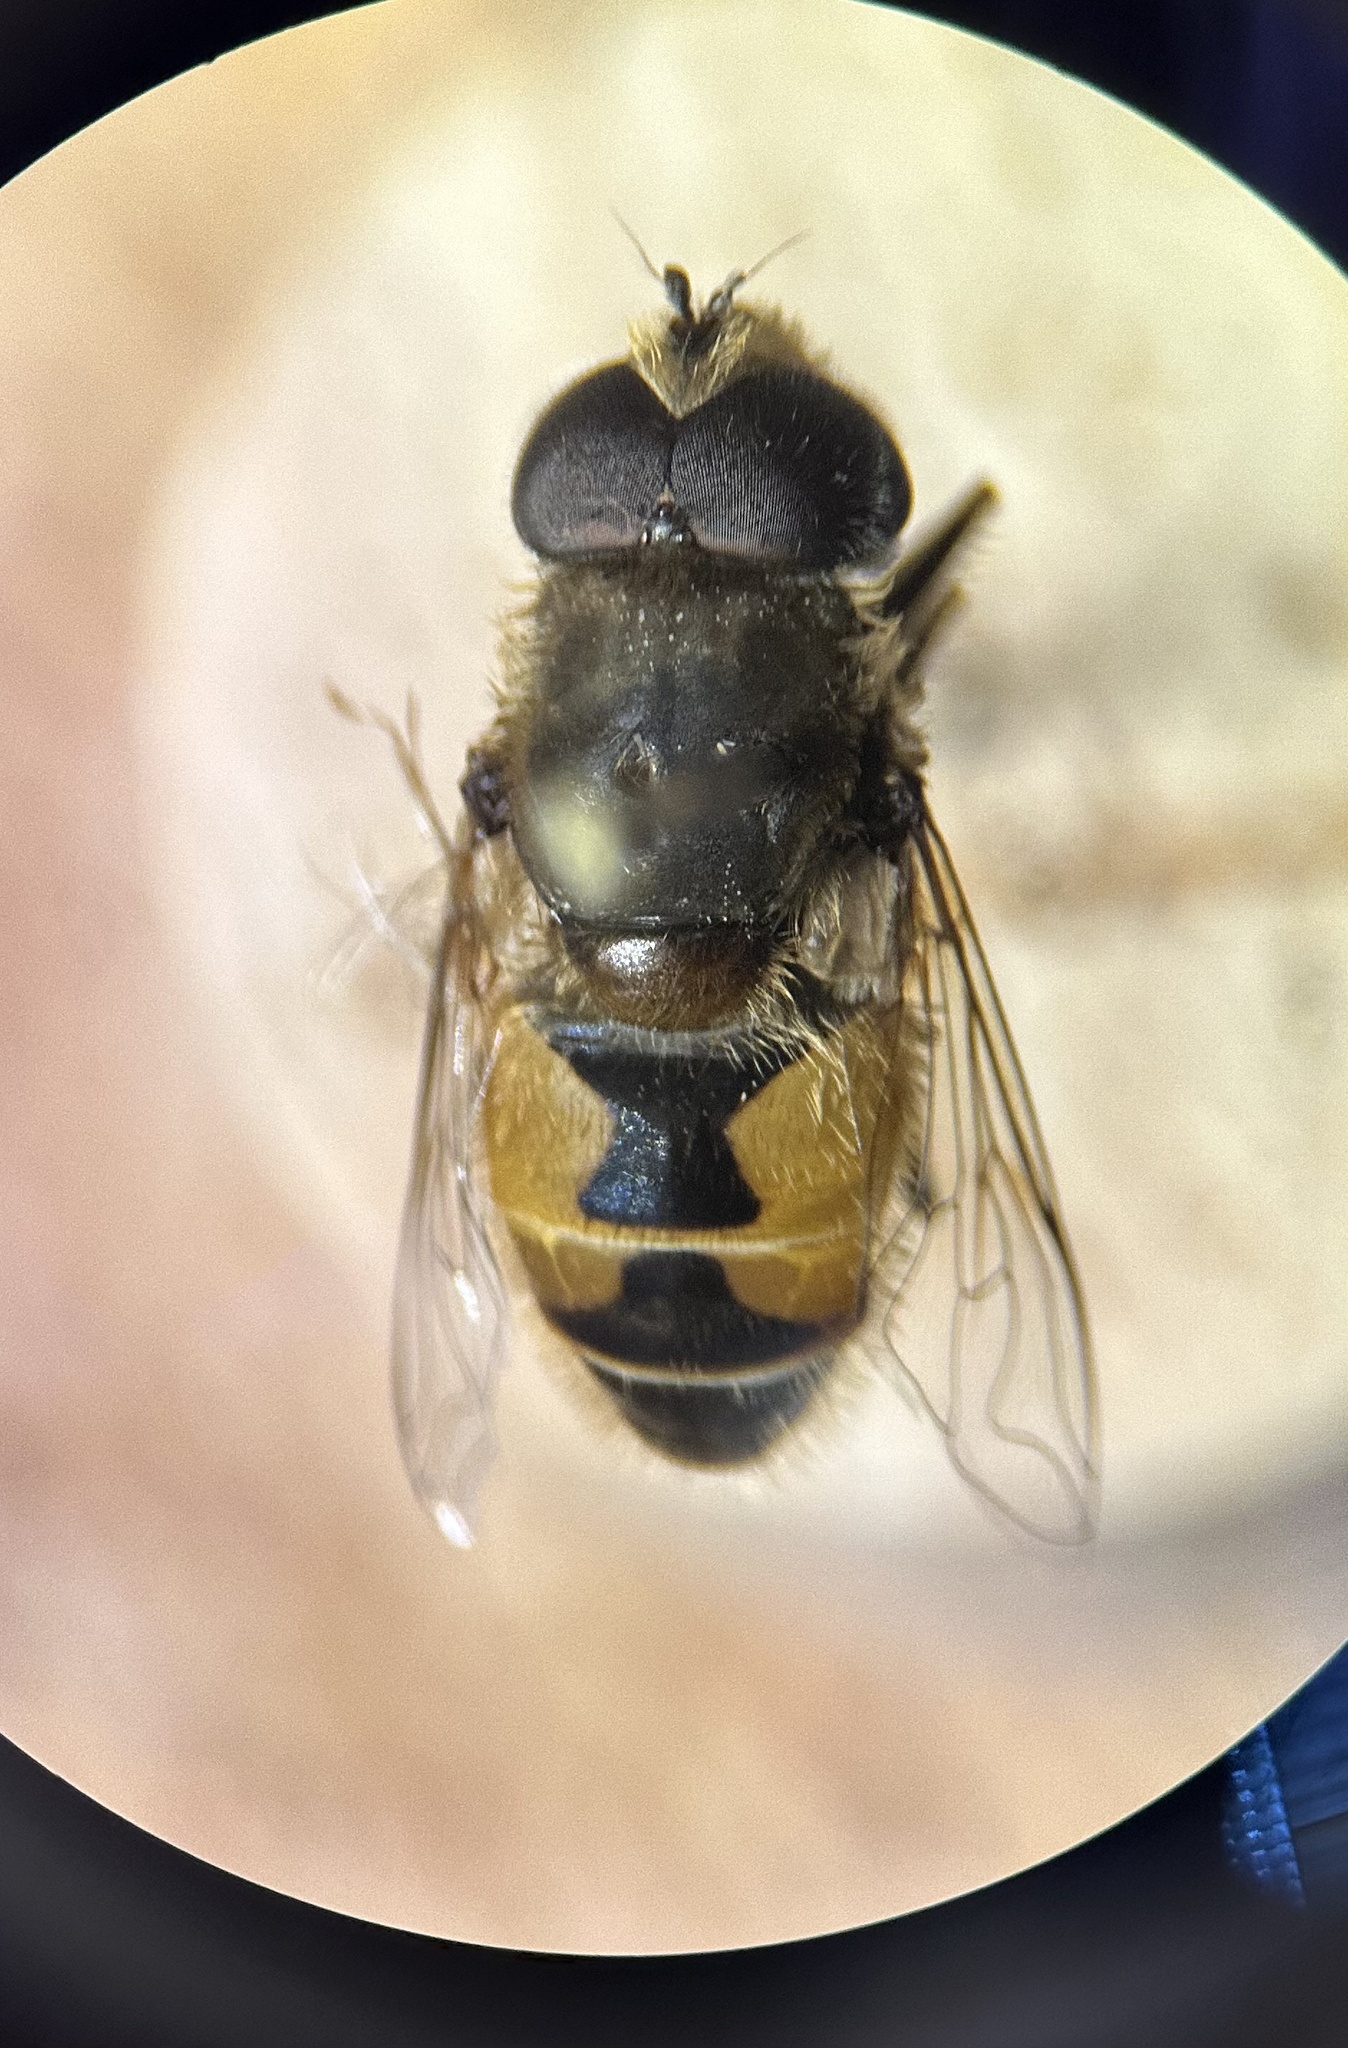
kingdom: Animalia
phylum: Arthropoda
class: Insecta
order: Diptera
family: Syrphidae
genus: Eristalis
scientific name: Eristalis arbustorum
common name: Hover fly
